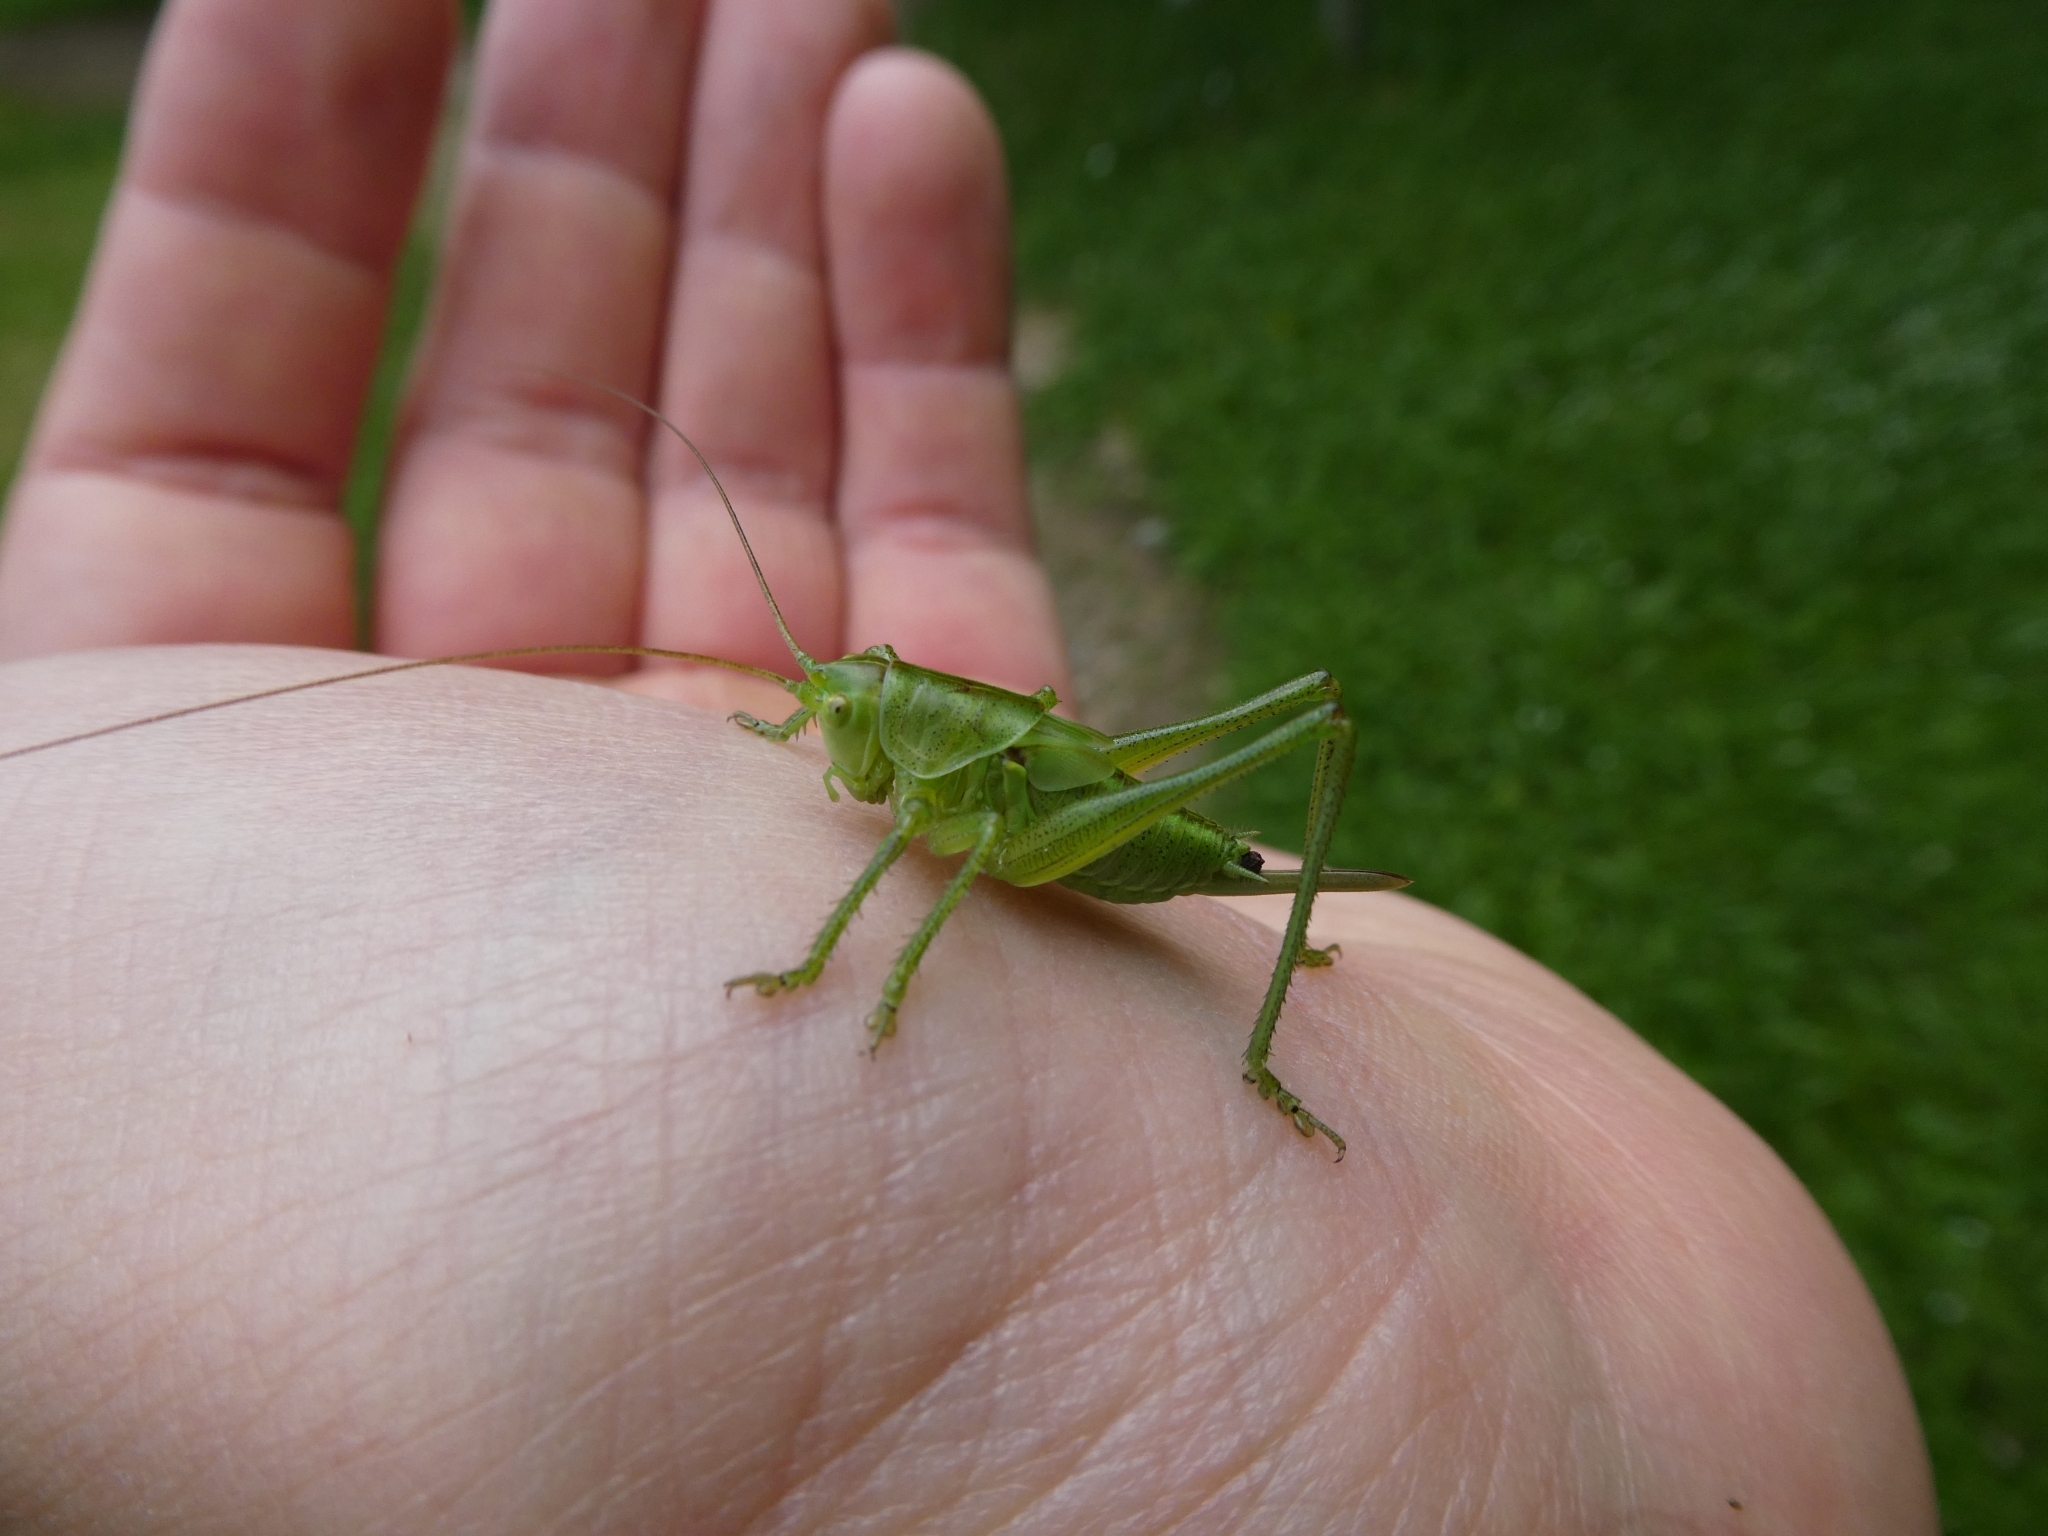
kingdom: Animalia
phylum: Arthropoda
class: Insecta
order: Orthoptera
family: Tettigoniidae
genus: Tettigonia
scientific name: Tettigonia viridissima
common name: Great green bush-cricket
